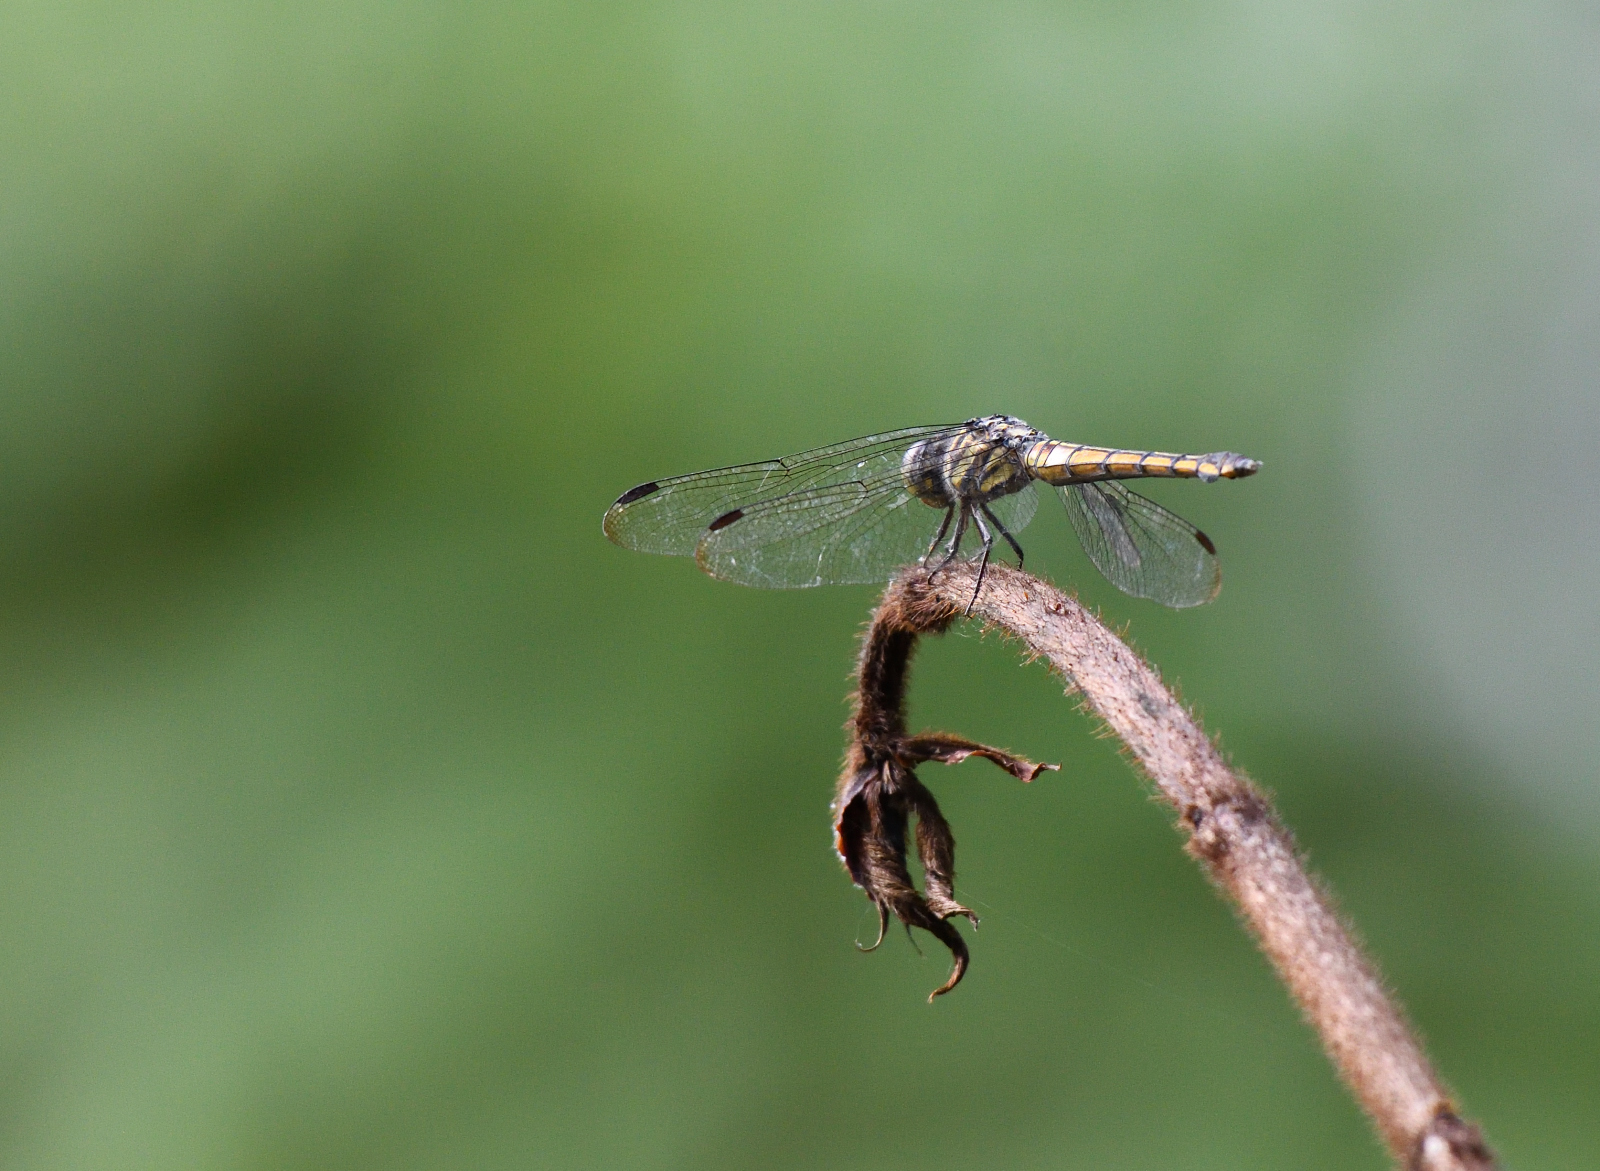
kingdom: Animalia
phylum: Arthropoda
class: Insecta
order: Odonata
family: Libellulidae
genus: Potamarcha
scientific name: Potamarcha congener
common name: Blue chaser
